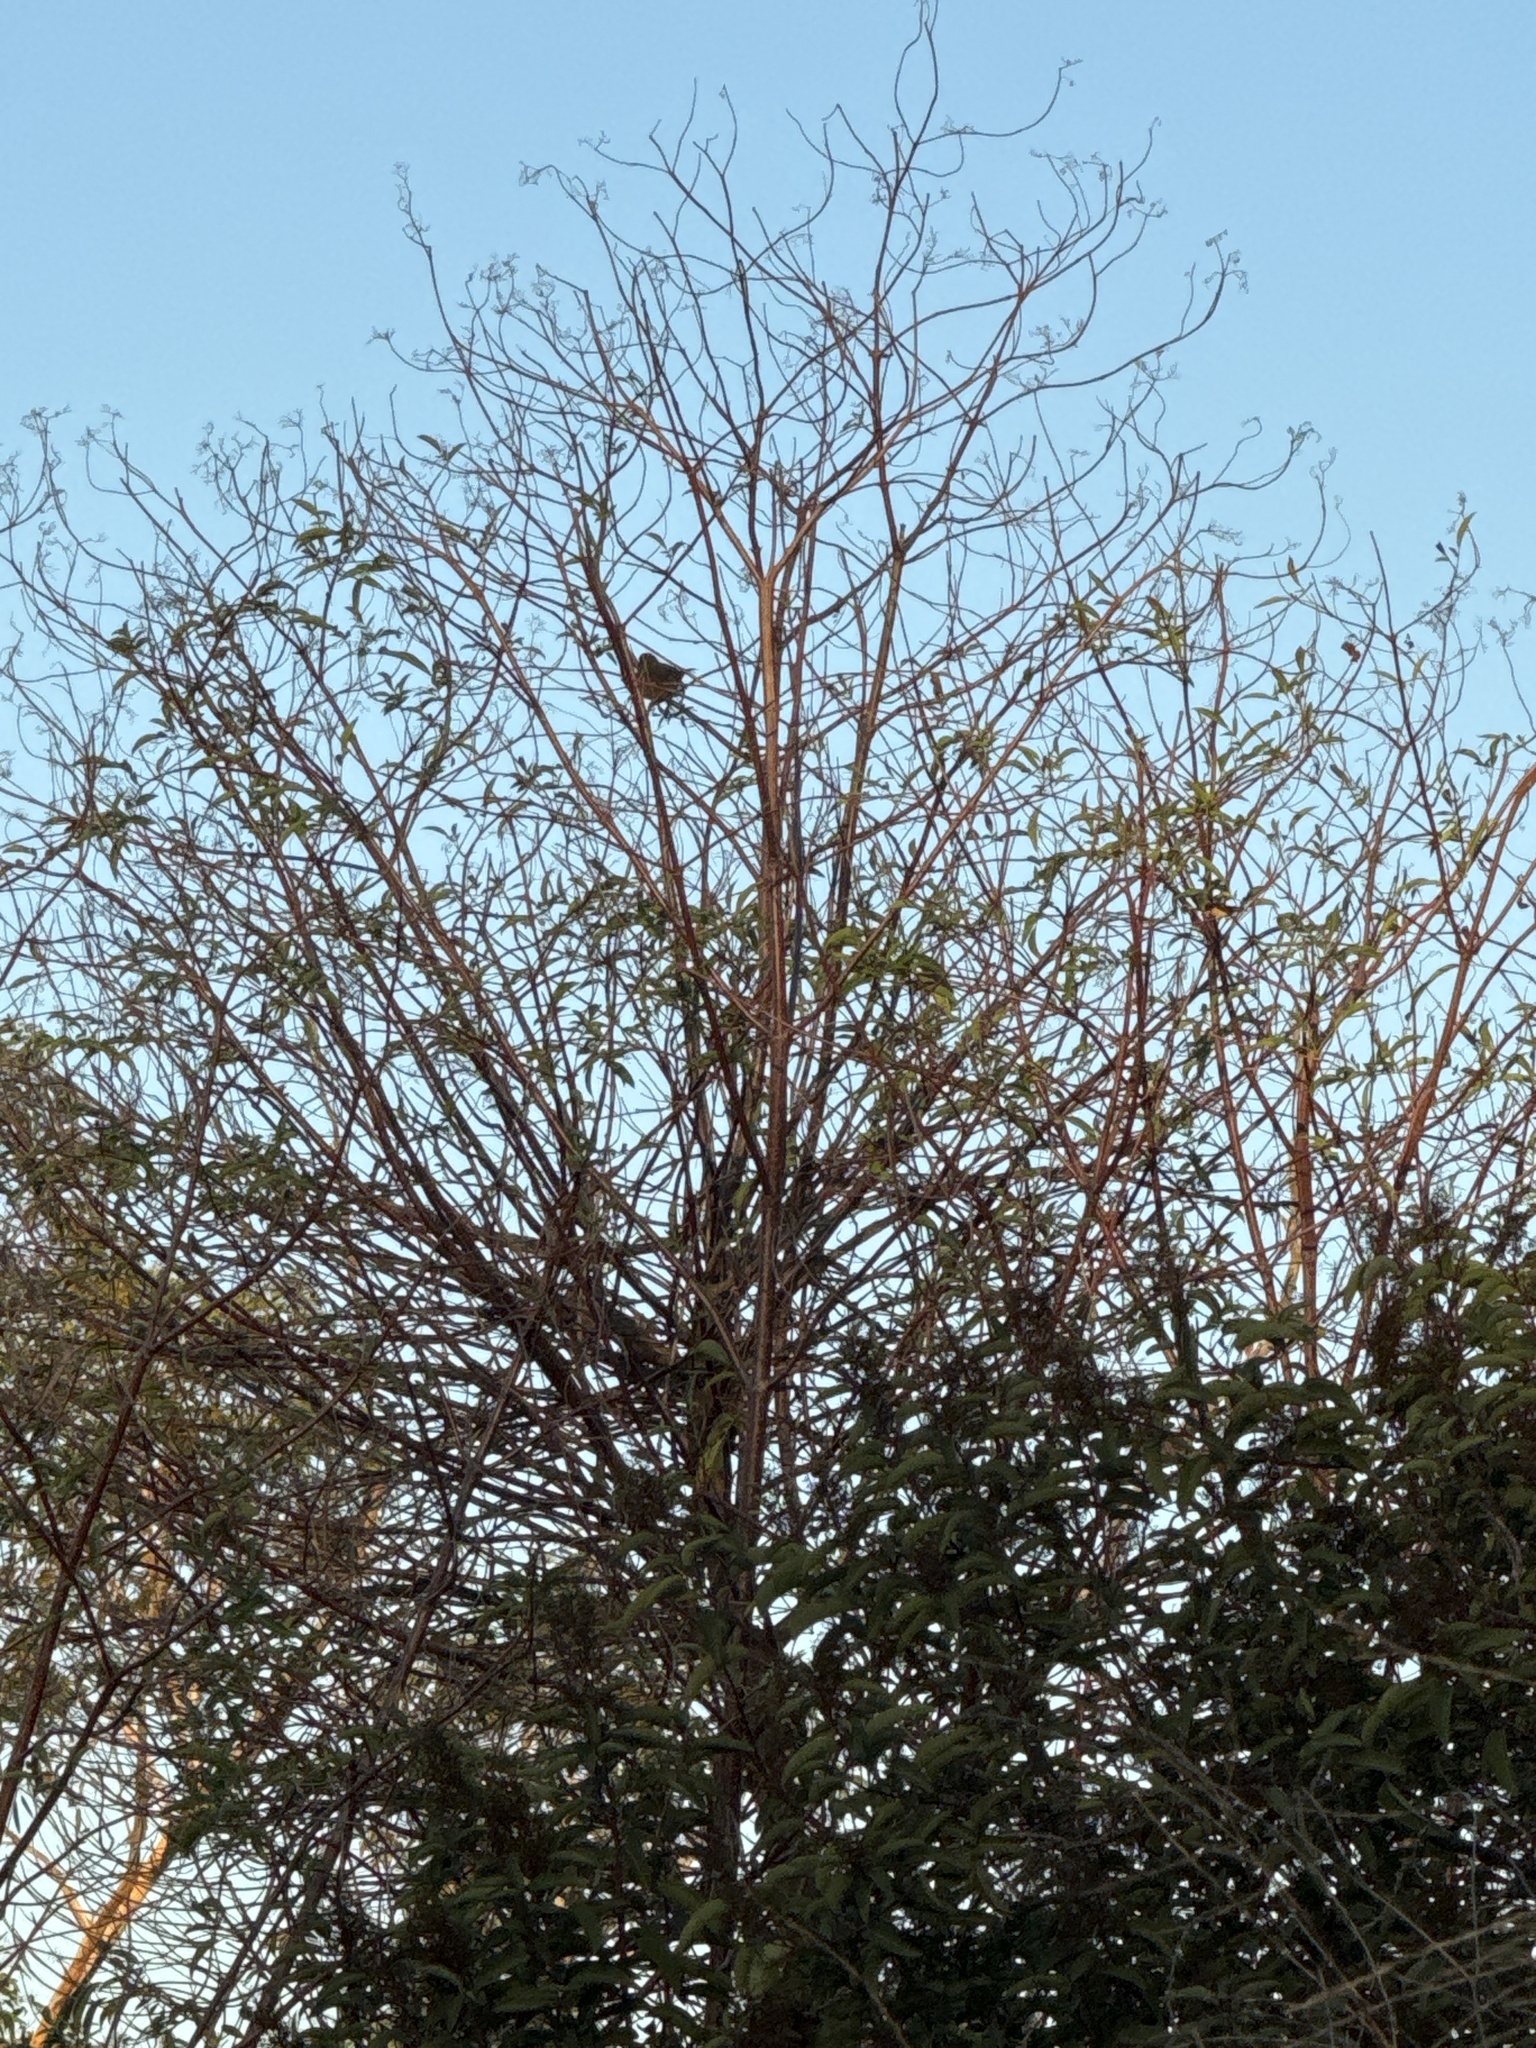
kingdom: Animalia
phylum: Chordata
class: Aves
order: Passeriformes
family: Troglodytidae
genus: Thryomanes
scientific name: Thryomanes bewickii
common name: Bewick's wren
